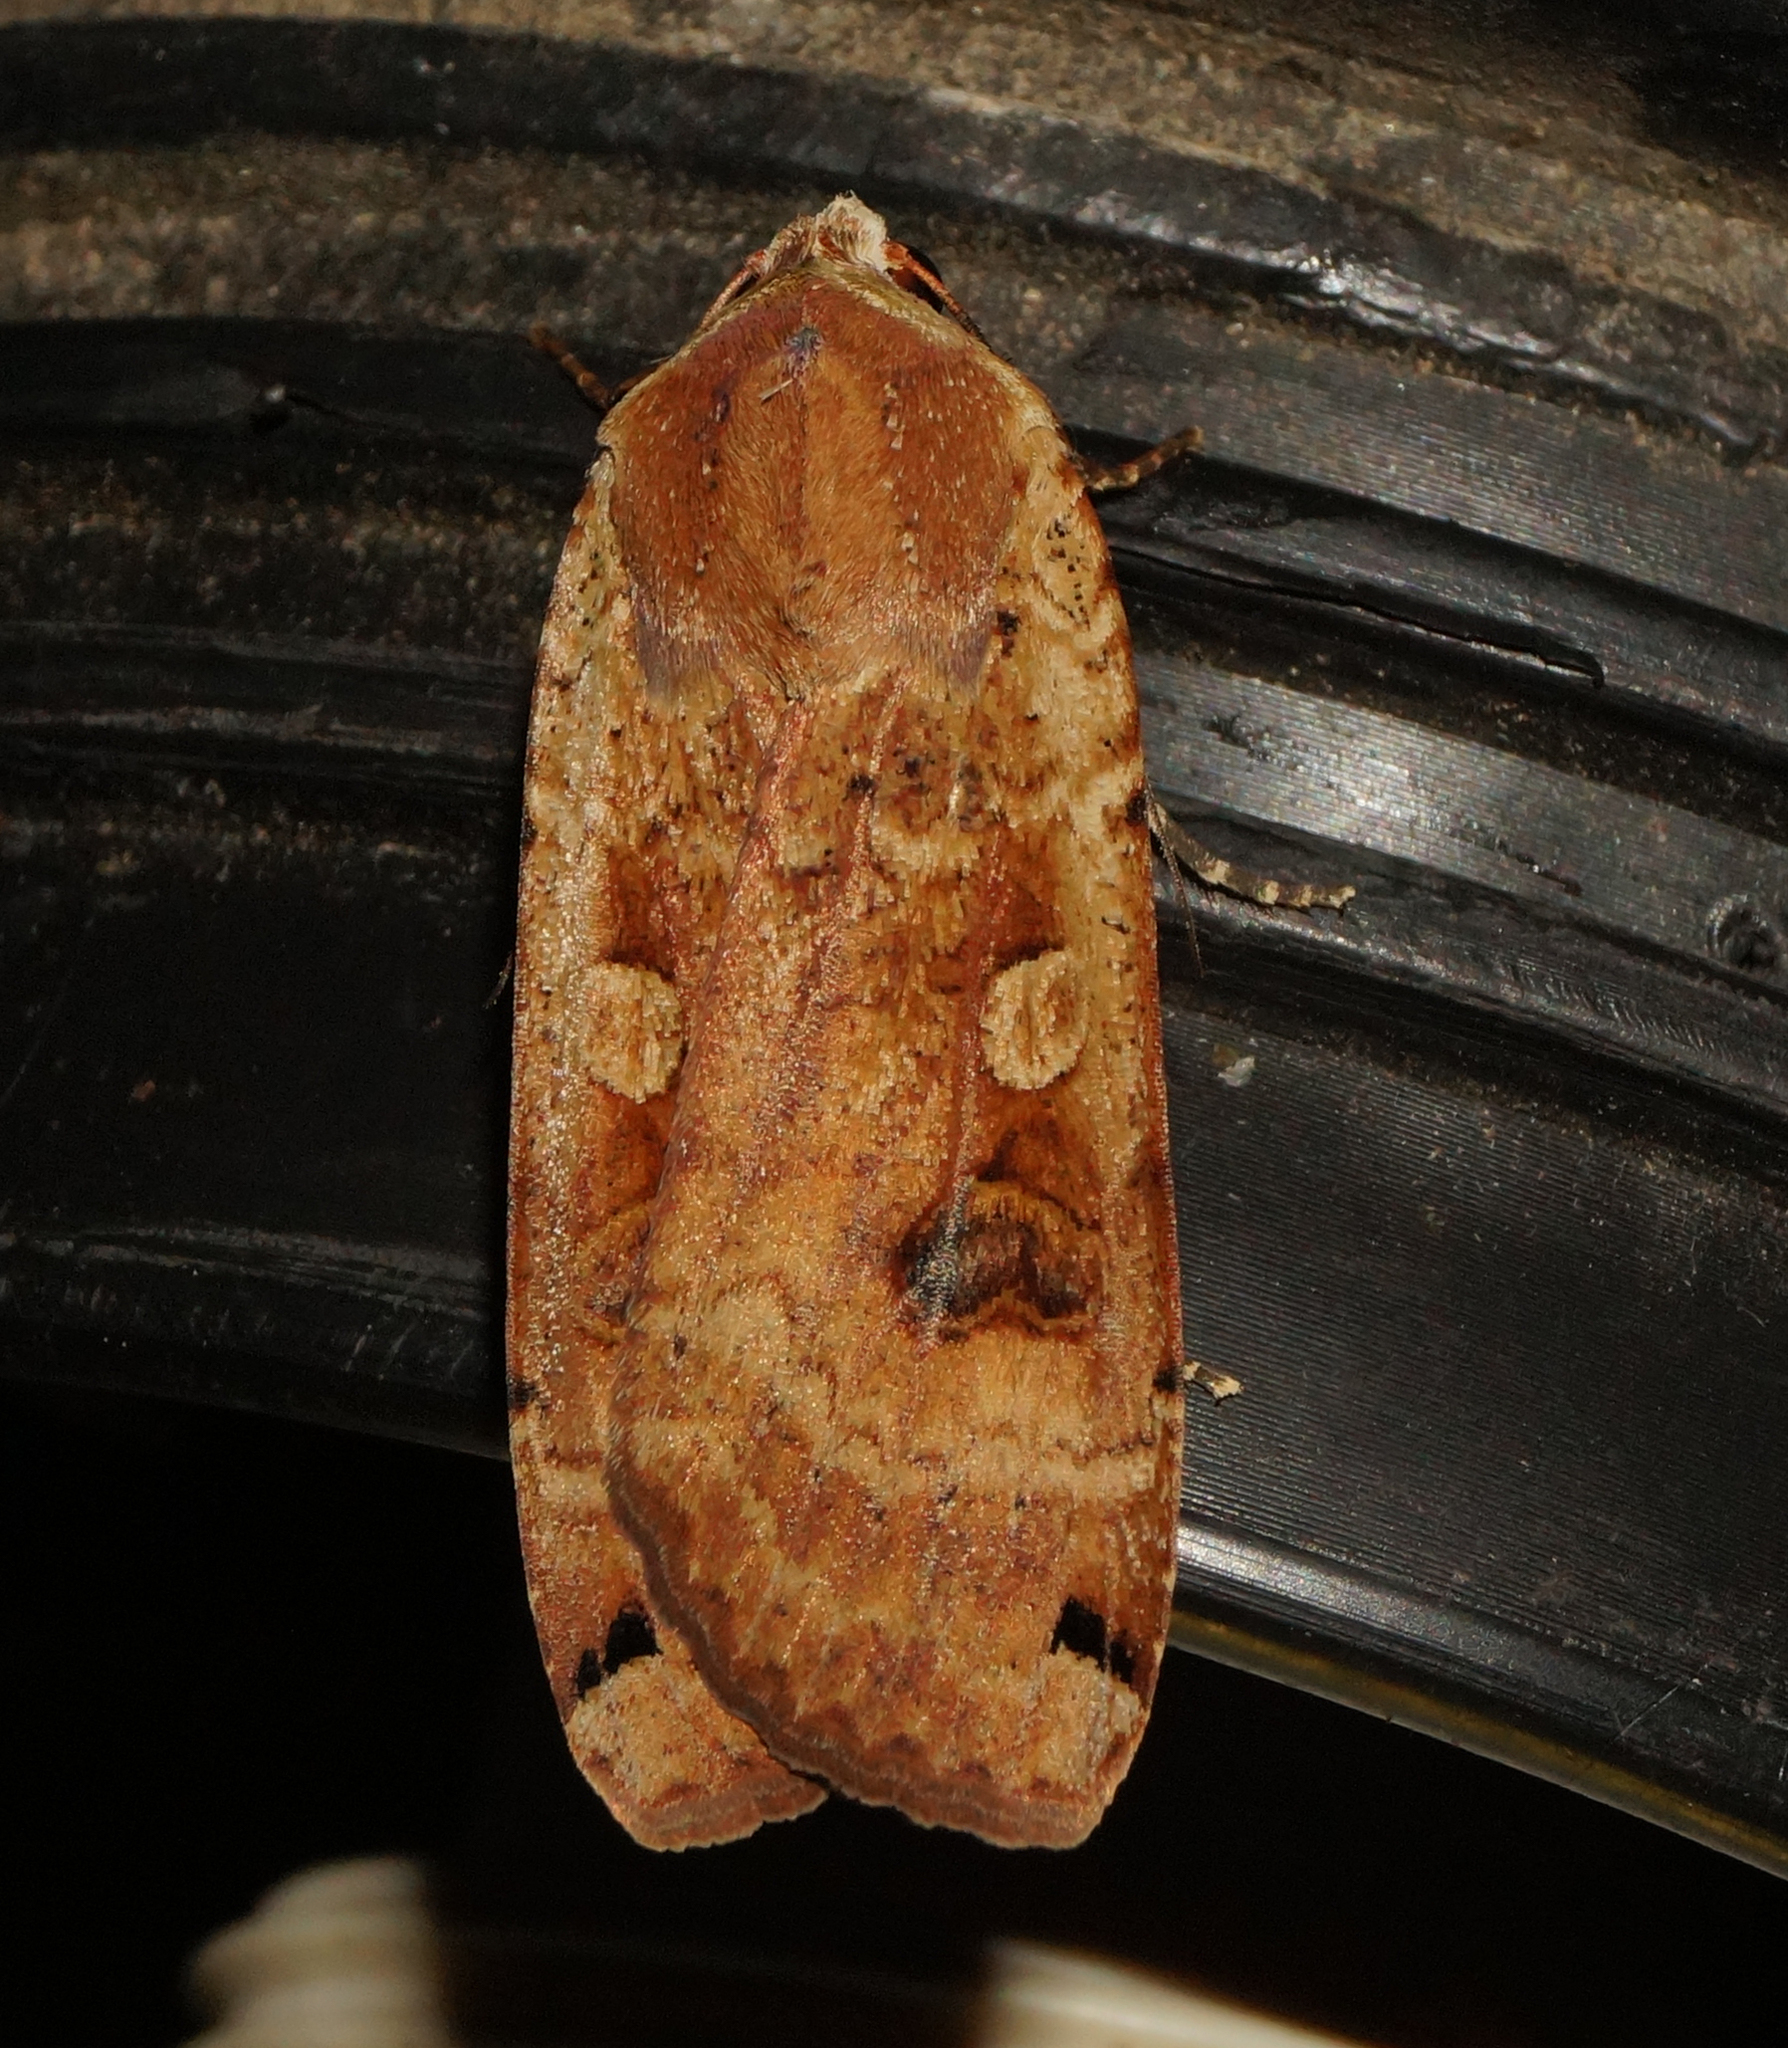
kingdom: Animalia
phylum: Arthropoda
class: Insecta
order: Lepidoptera
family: Noctuidae
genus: Noctua
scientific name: Noctua pronuba
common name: Large yellow underwing
